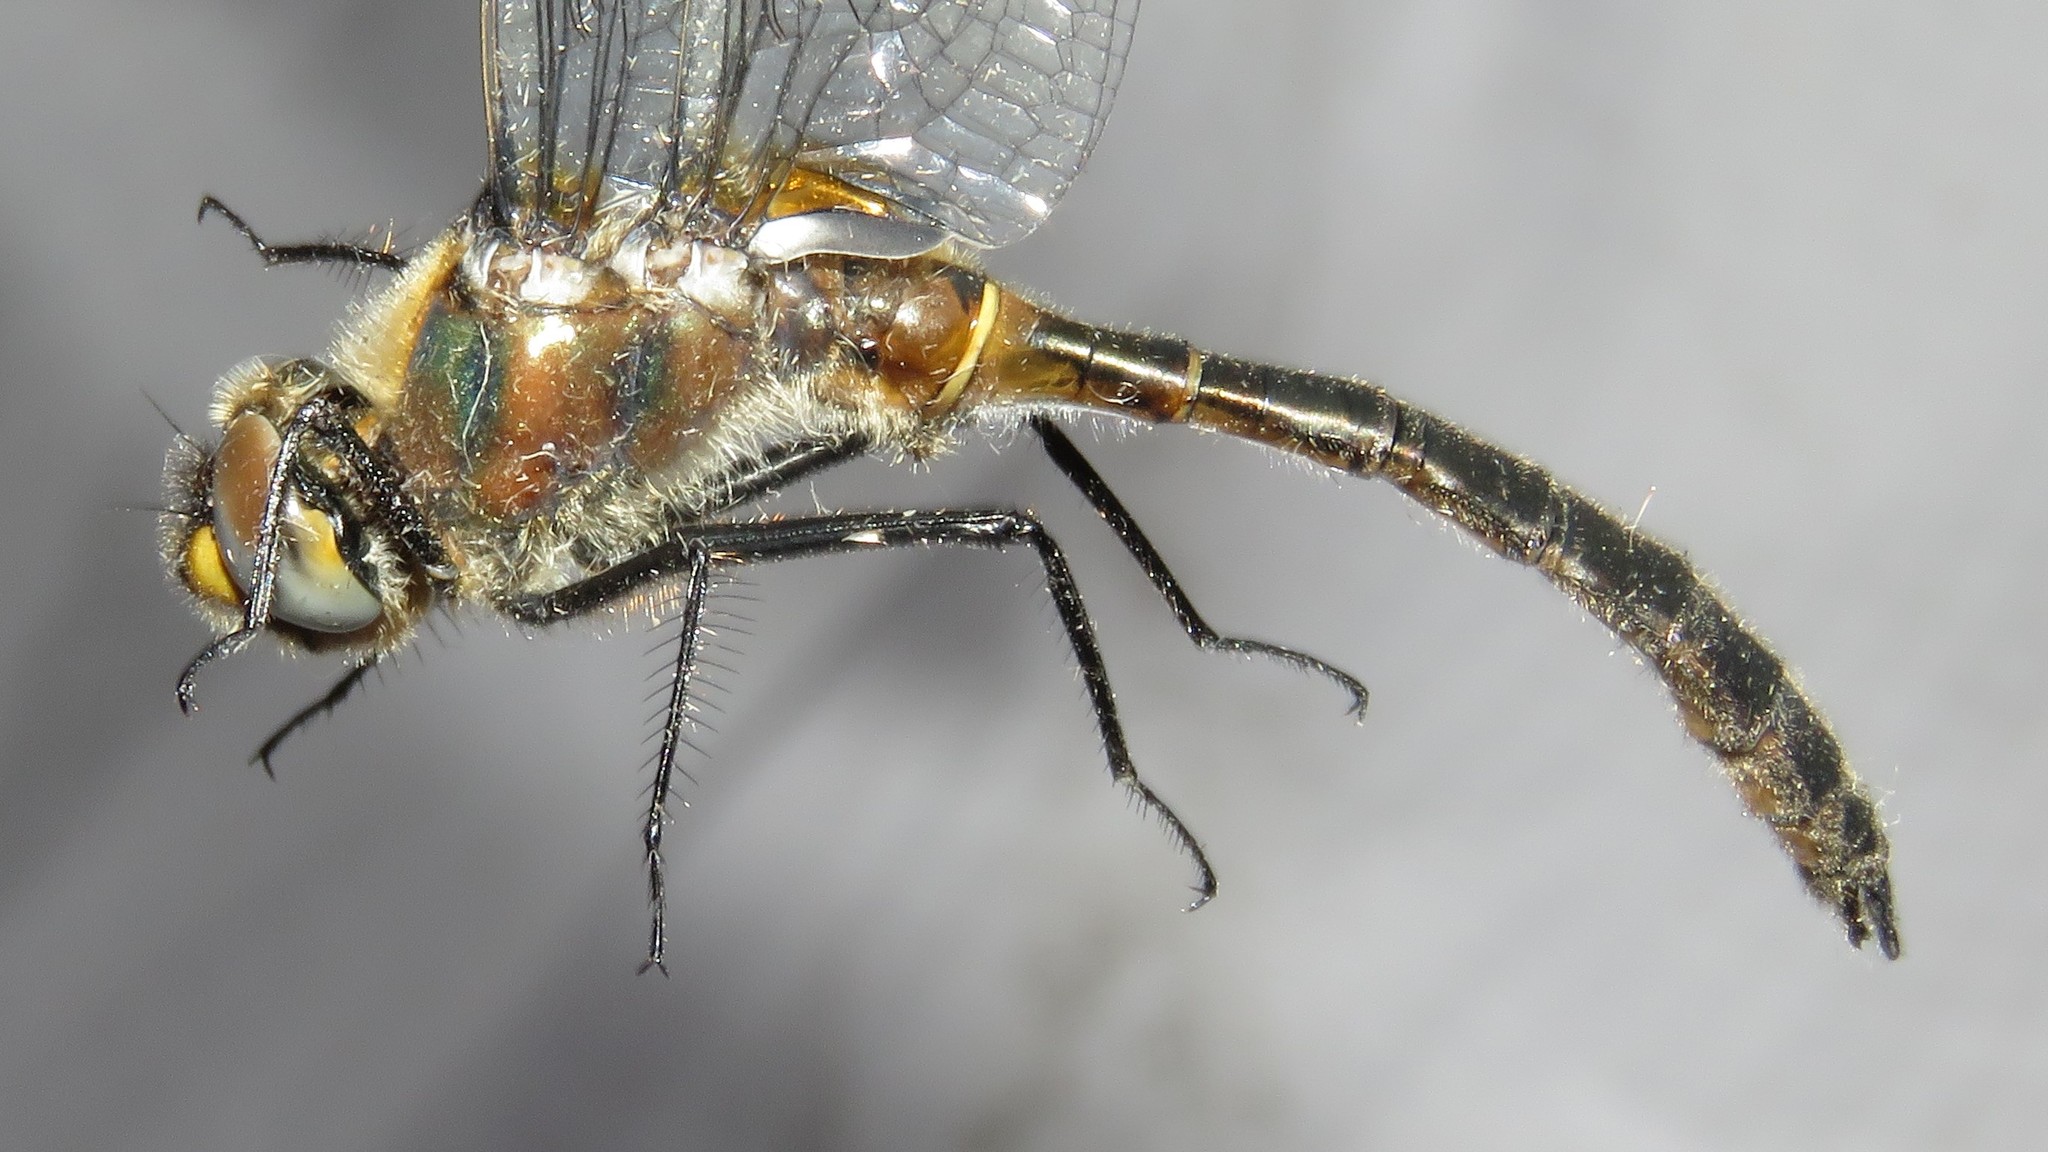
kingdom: Animalia
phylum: Arthropoda
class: Insecta
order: Odonata
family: Corduliidae
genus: Cordulia
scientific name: Cordulia shurtleffii
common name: American emerald
